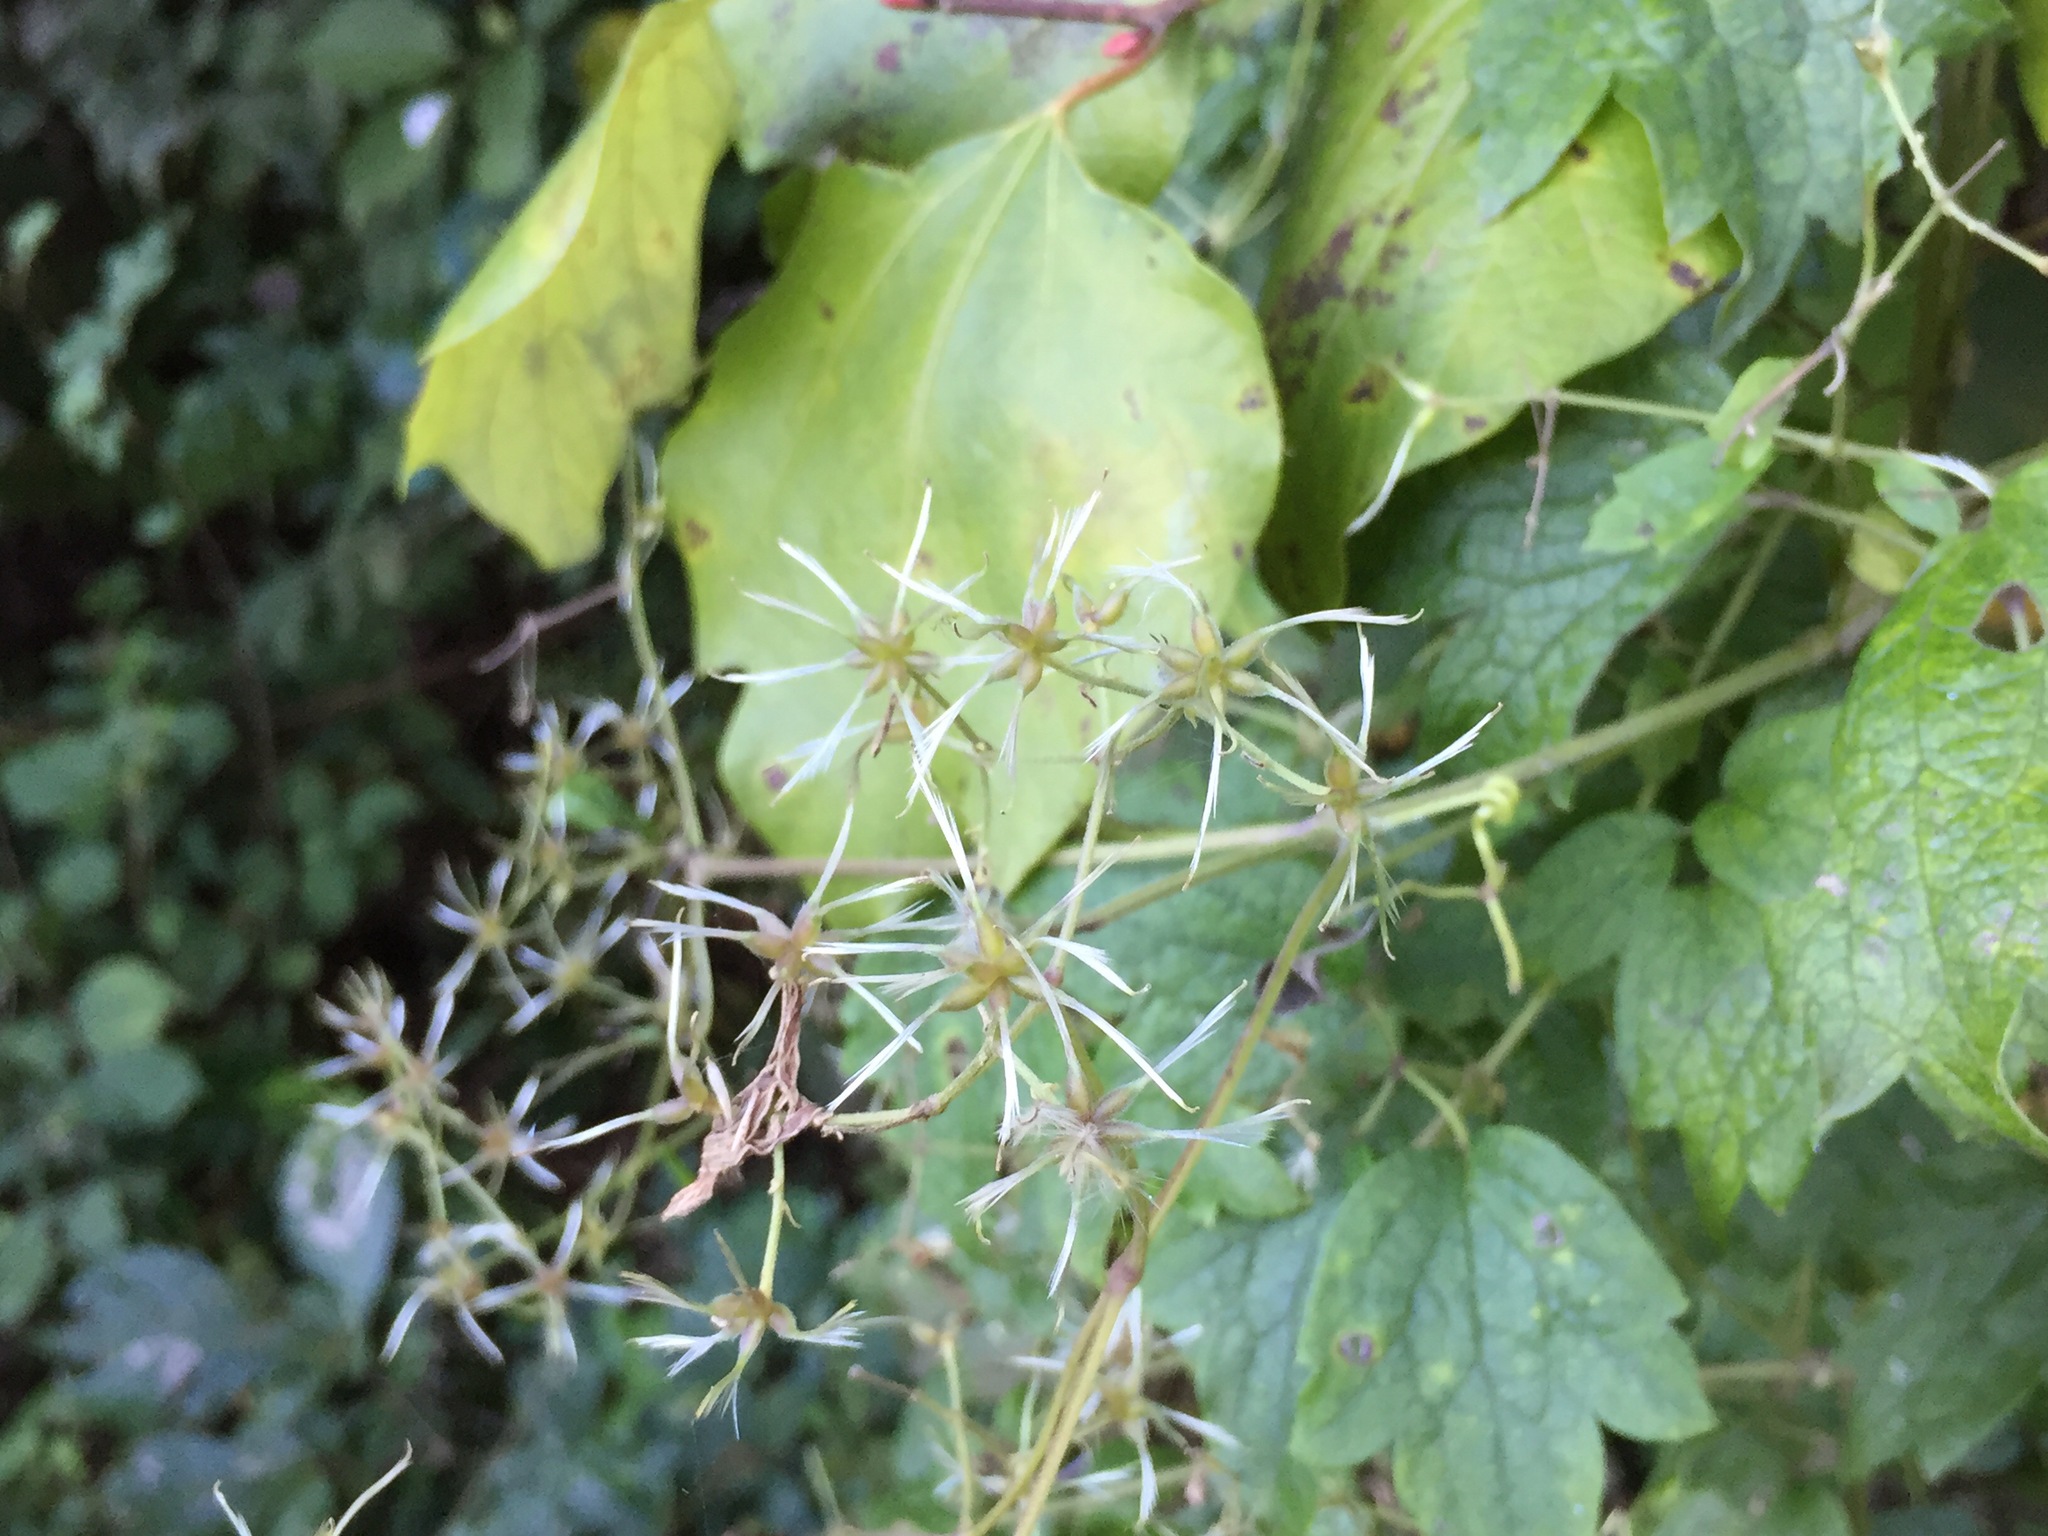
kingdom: Plantae
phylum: Tracheophyta
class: Magnoliopsida
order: Ranunculales
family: Ranunculaceae
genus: Clematis
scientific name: Clematis apiifolia
